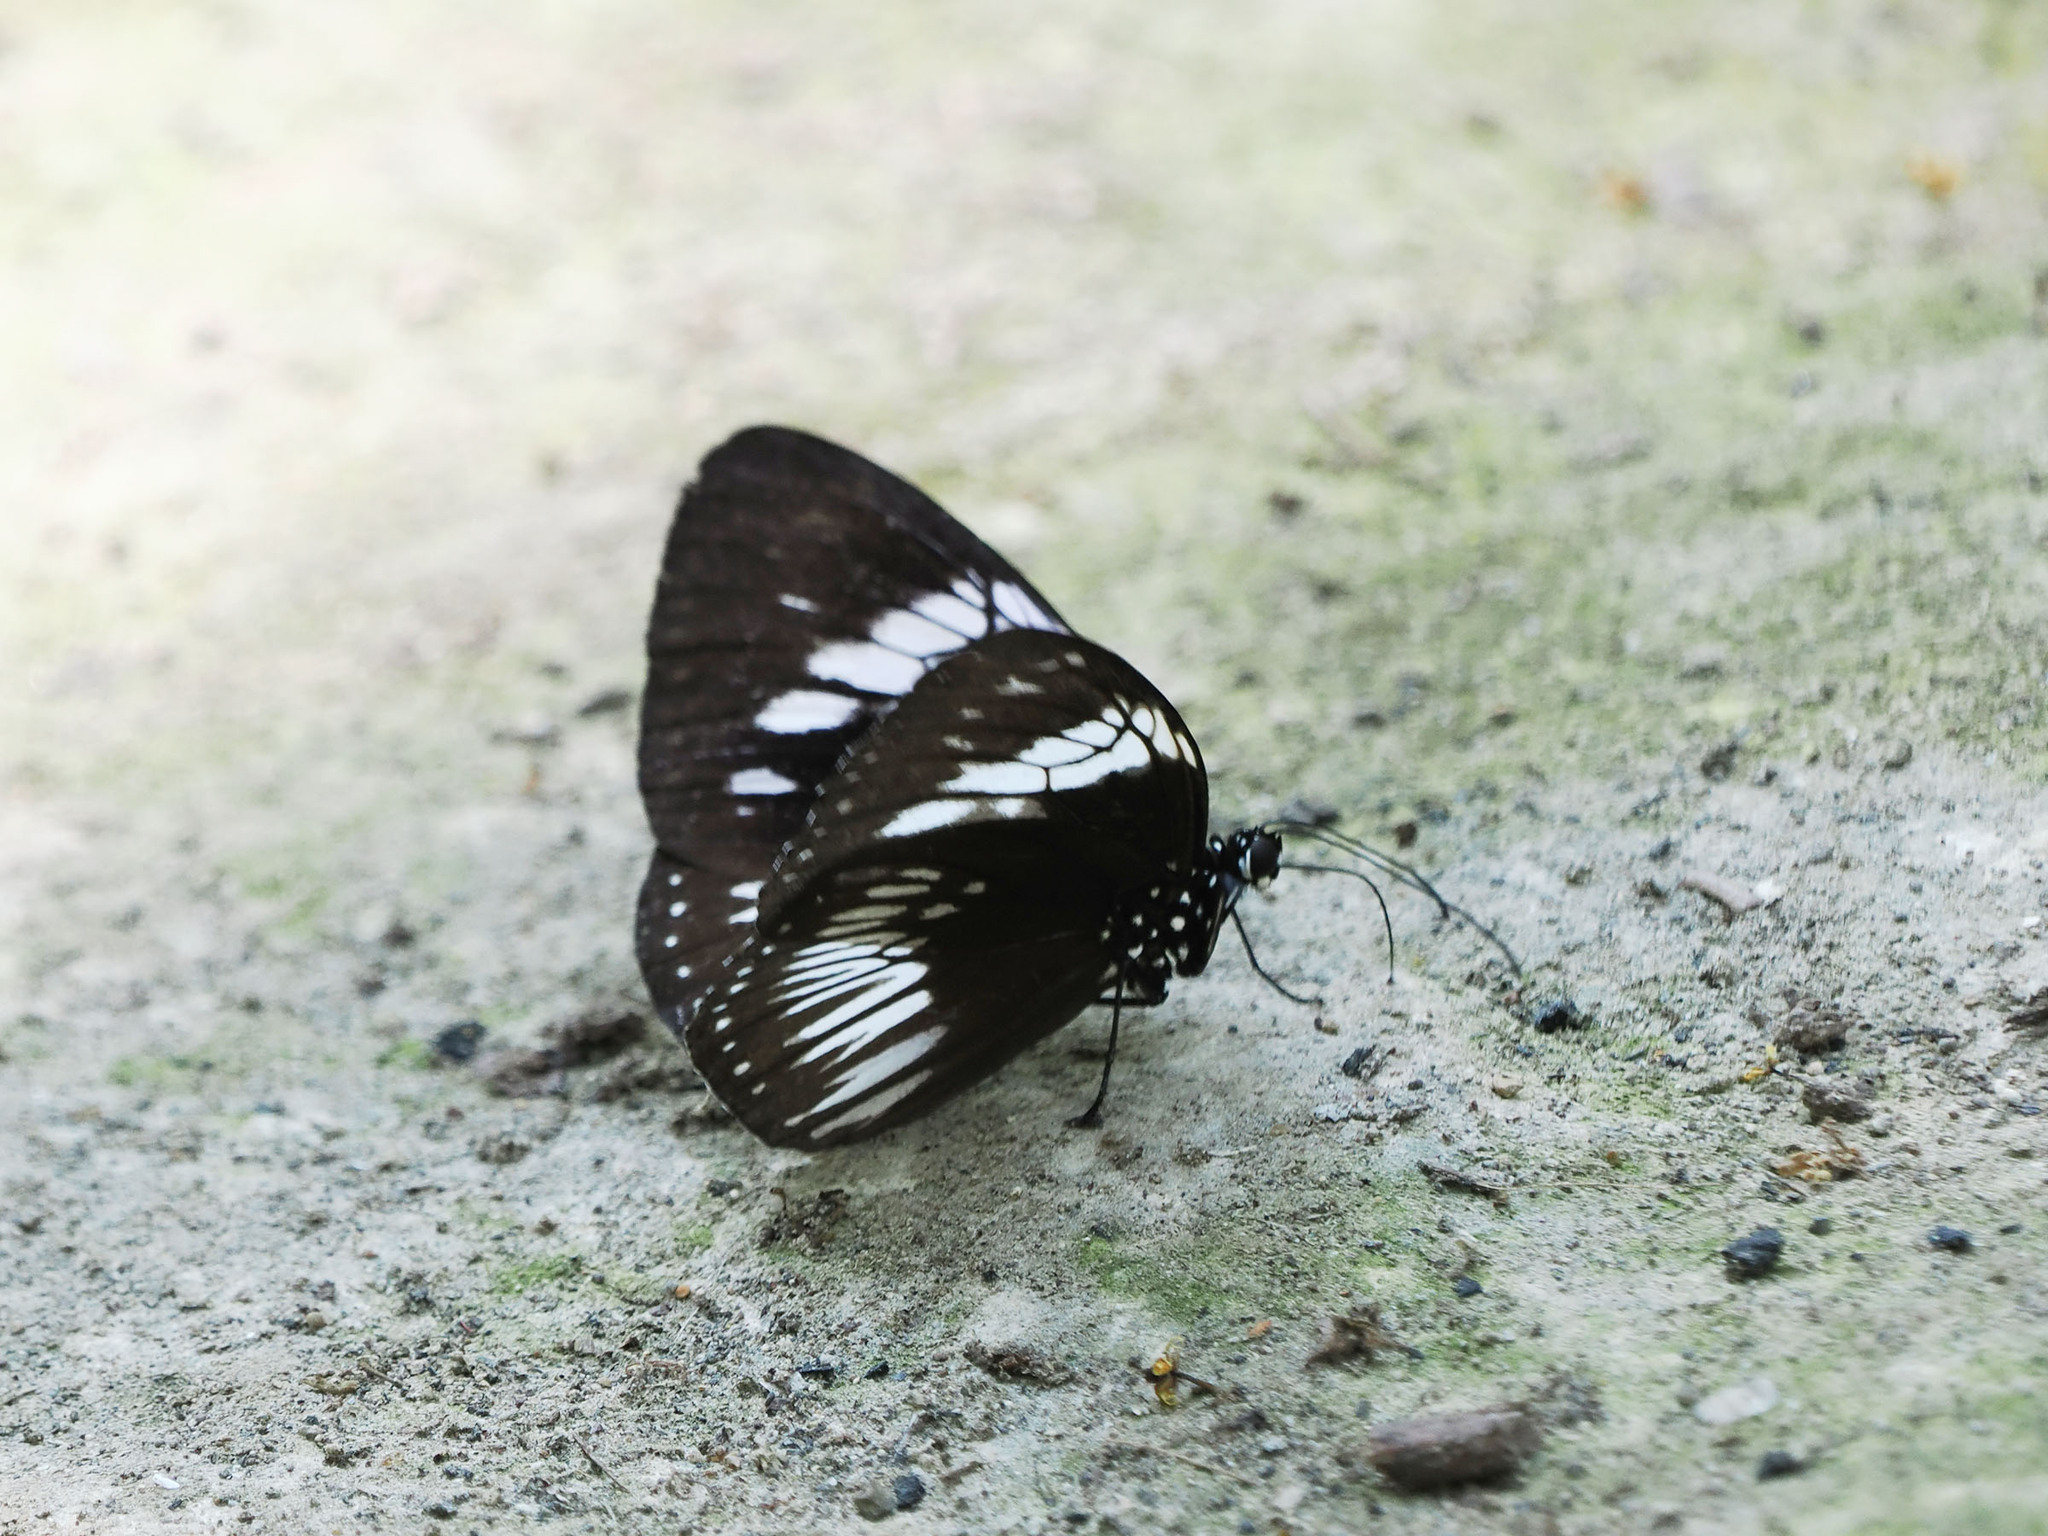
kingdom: Animalia
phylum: Arthropoda
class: Insecta
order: Lepidoptera
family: Nymphalidae
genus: Euploea
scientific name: Euploea eupator
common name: Sulawesi pied crow
